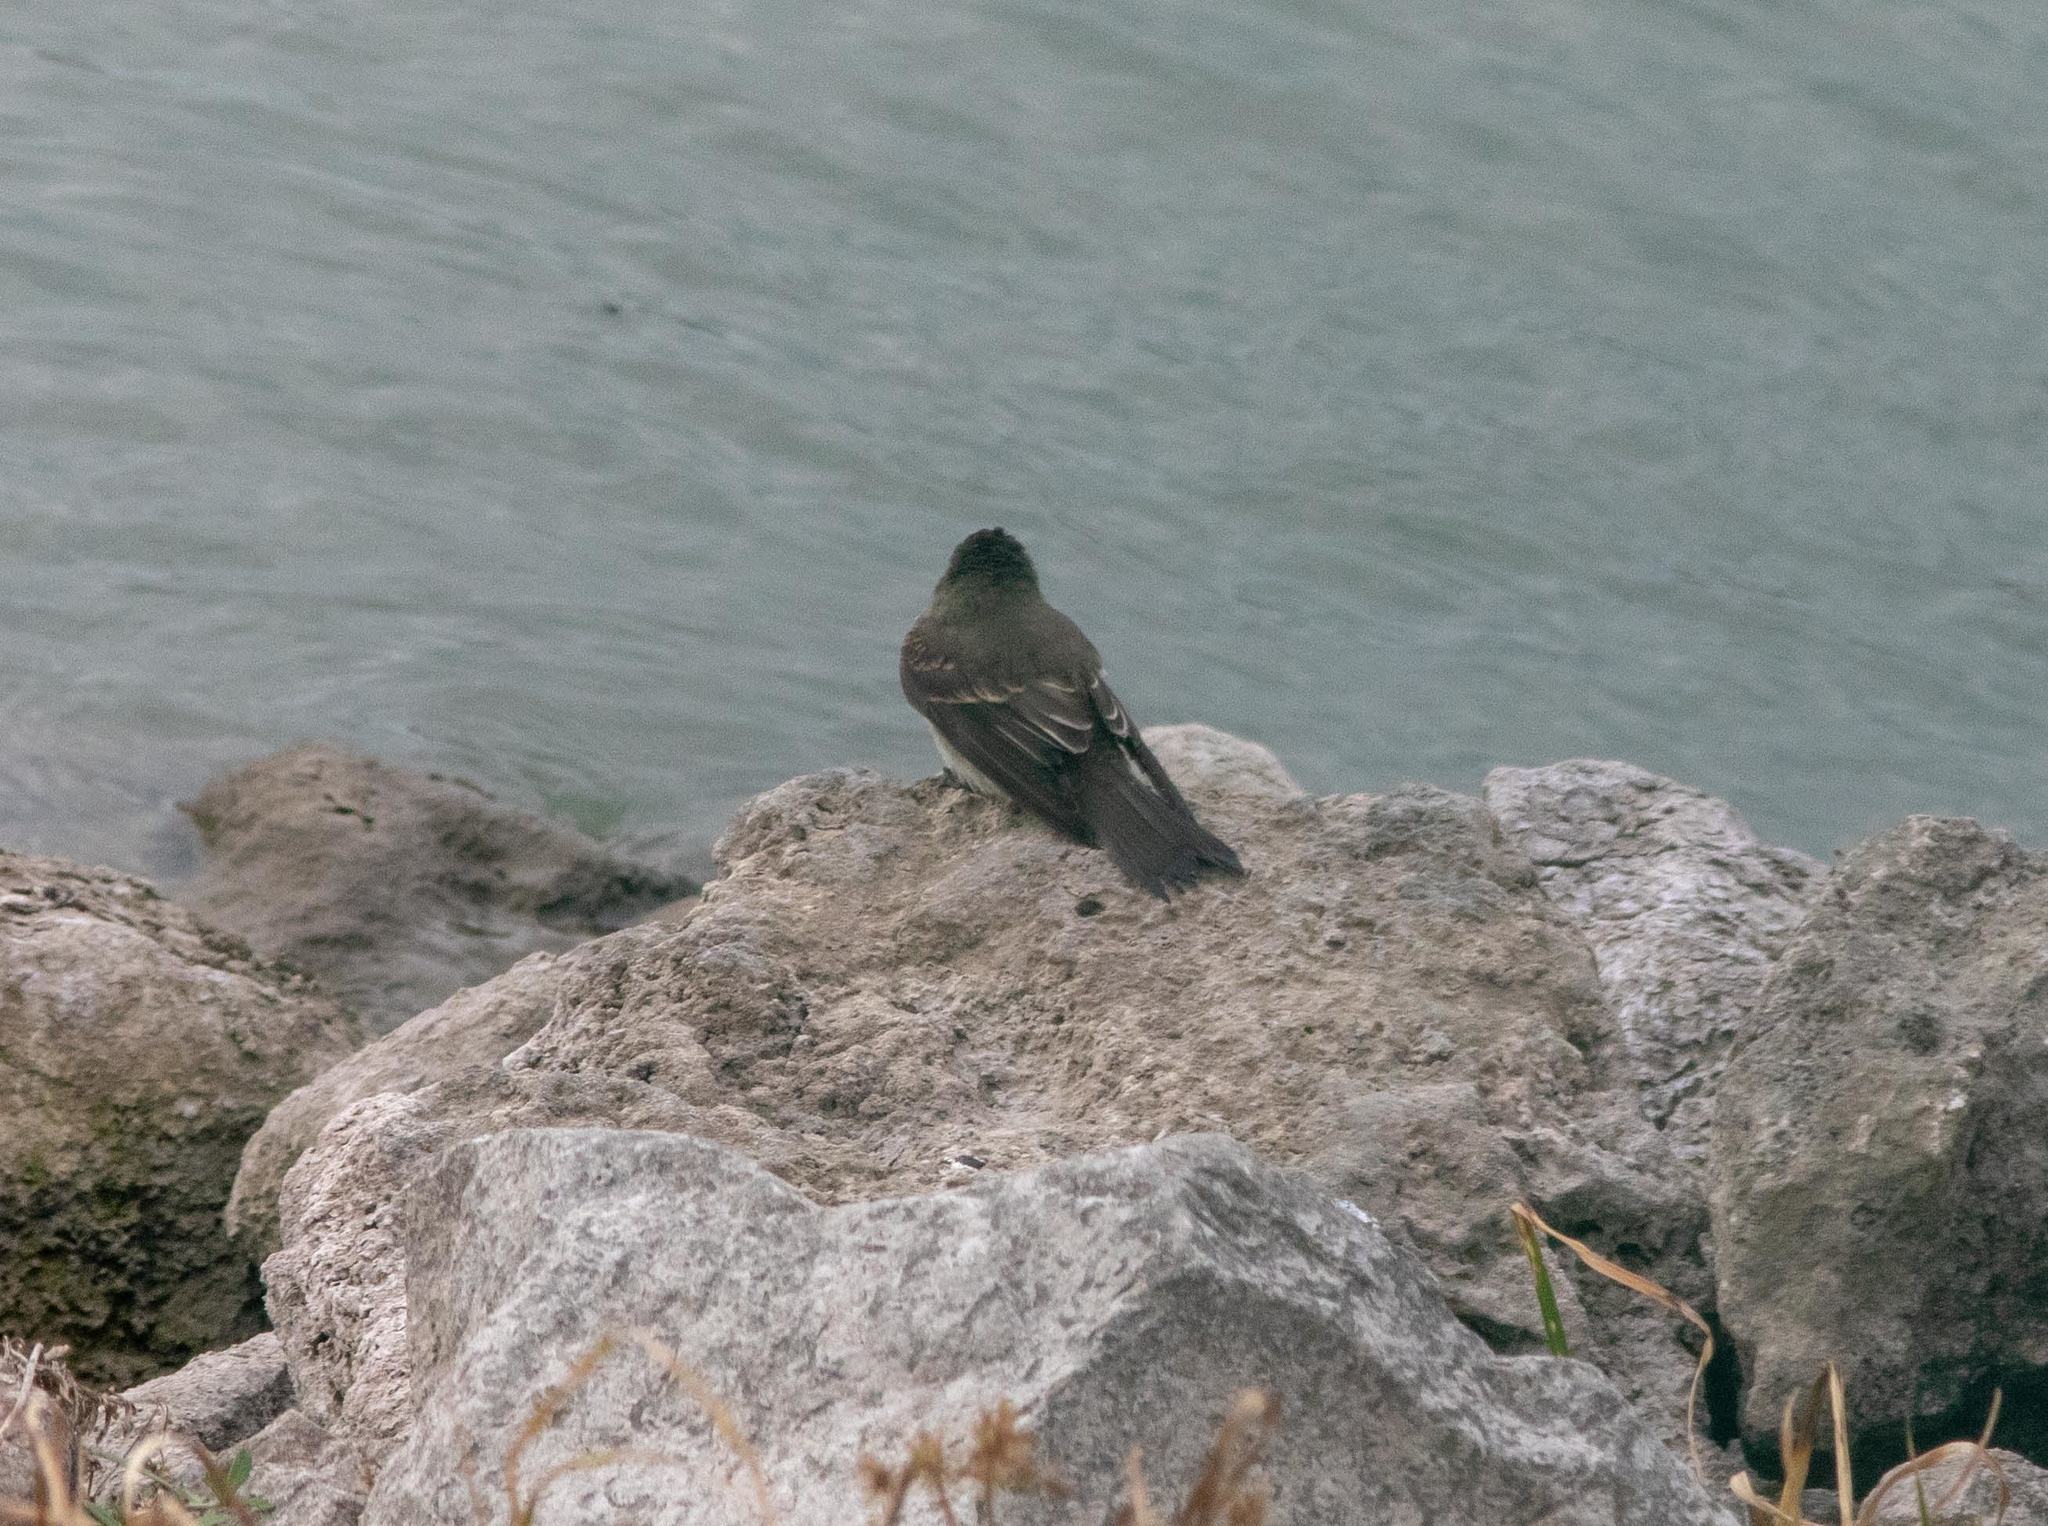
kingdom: Animalia
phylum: Chordata
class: Aves
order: Passeriformes
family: Tyrannidae
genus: Contopus
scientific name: Contopus virens
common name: Eastern wood-pewee
